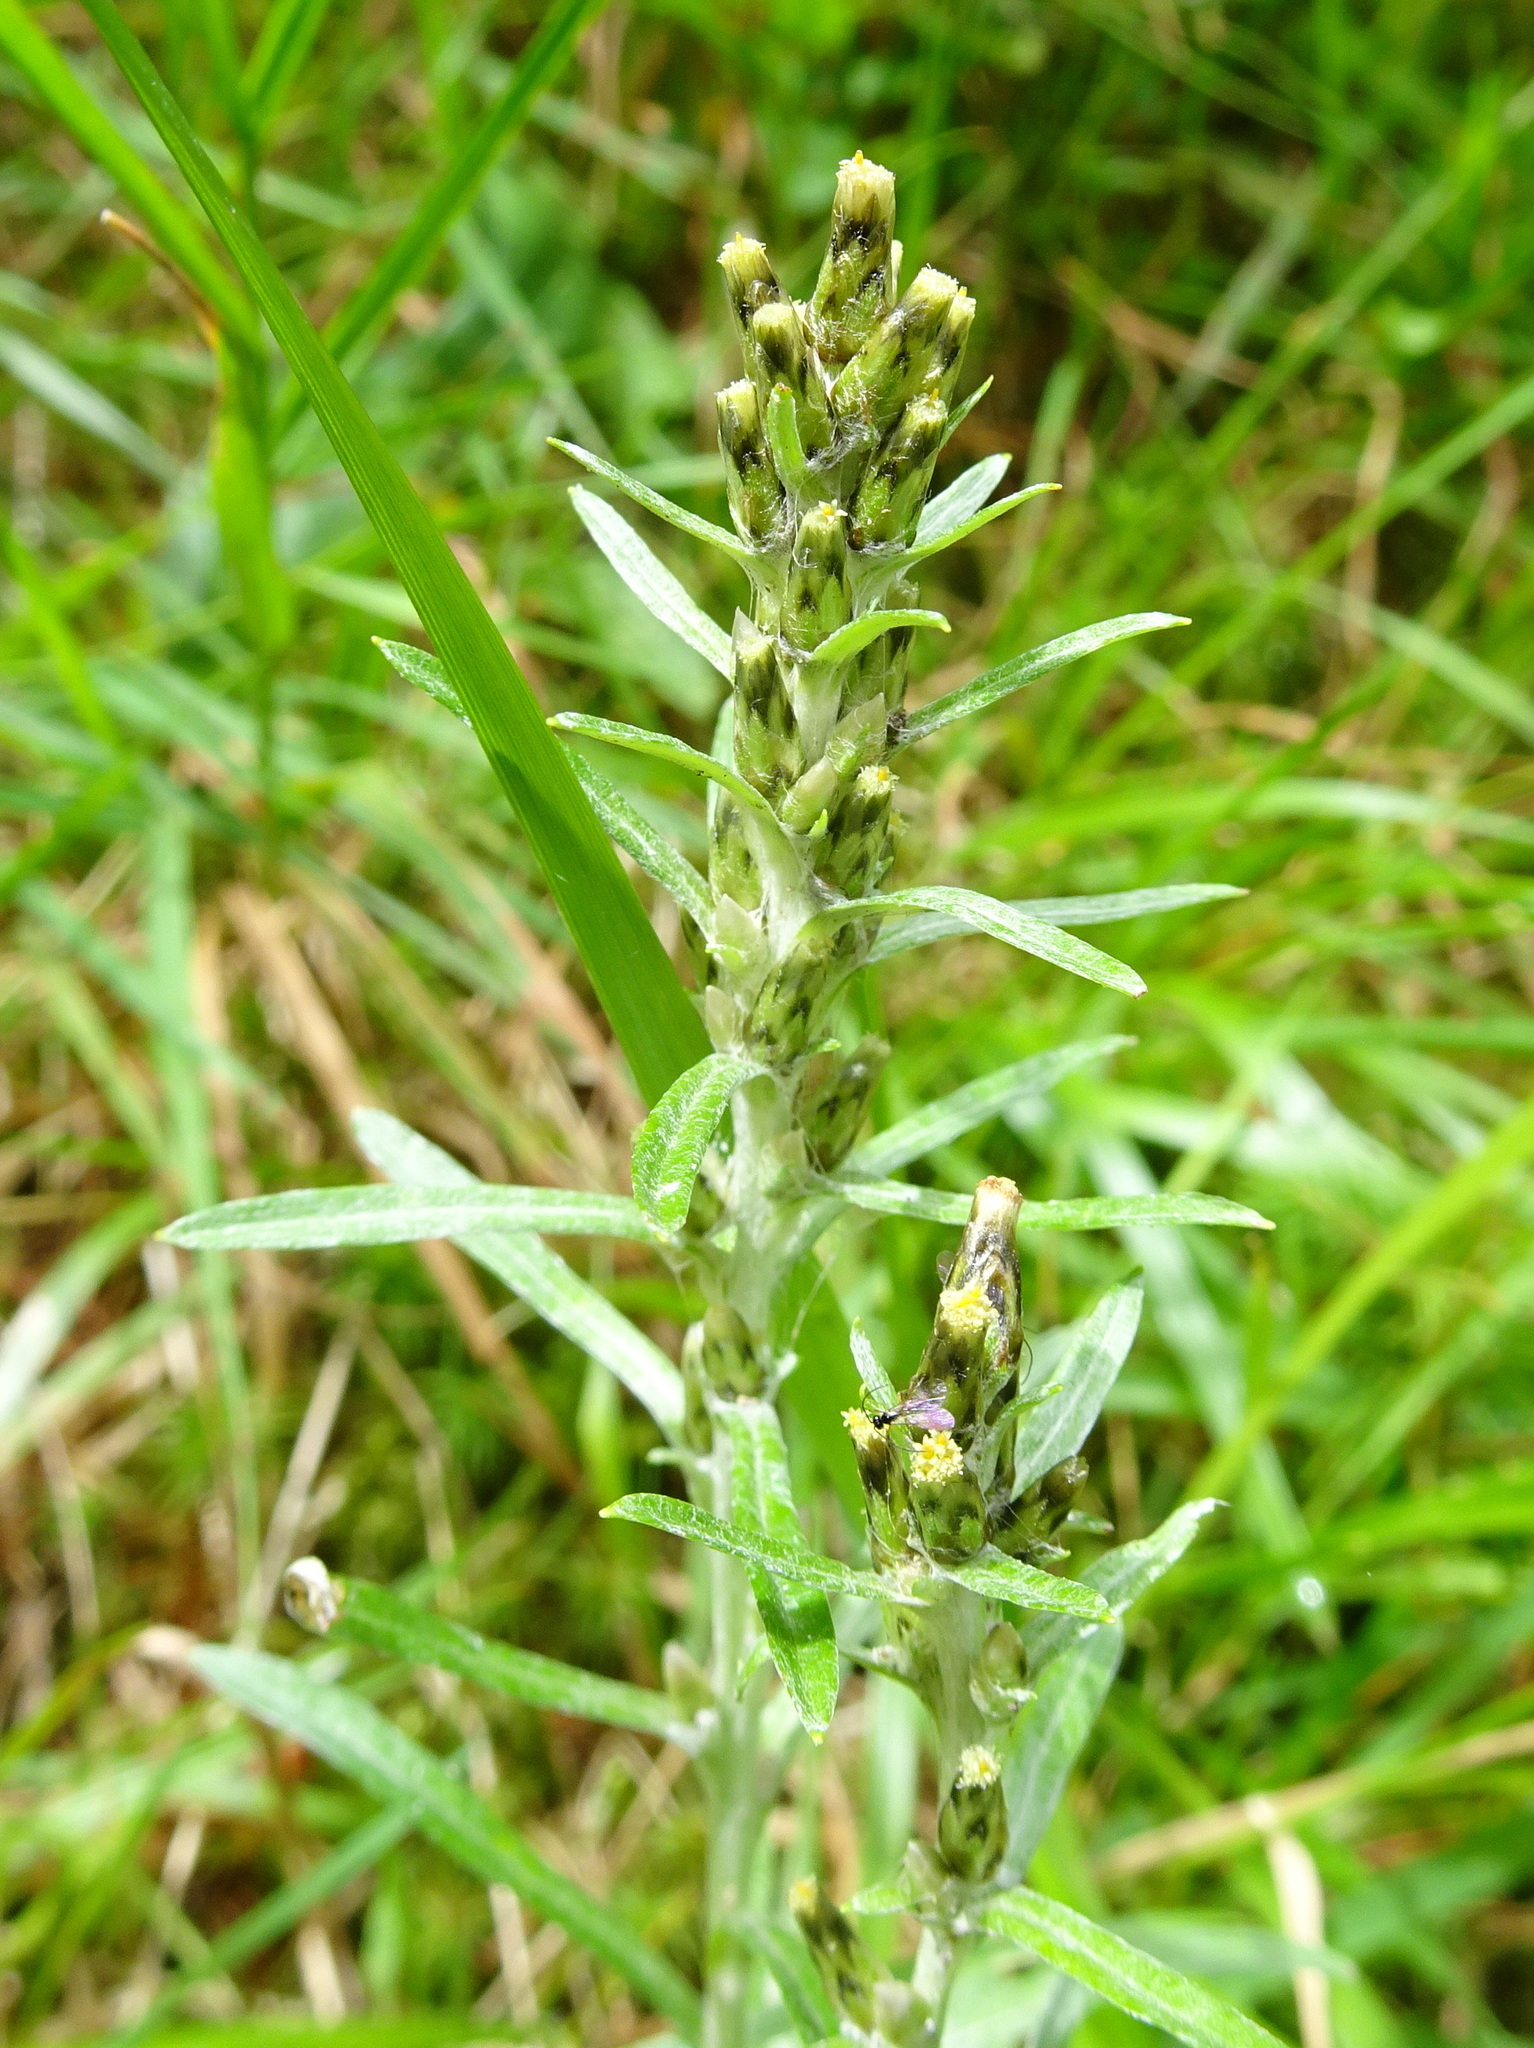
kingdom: Plantae
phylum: Tracheophyta
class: Magnoliopsida
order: Asterales
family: Asteraceae
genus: Omalotheca
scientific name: Omalotheca sylvatica
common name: Heath cudweed
